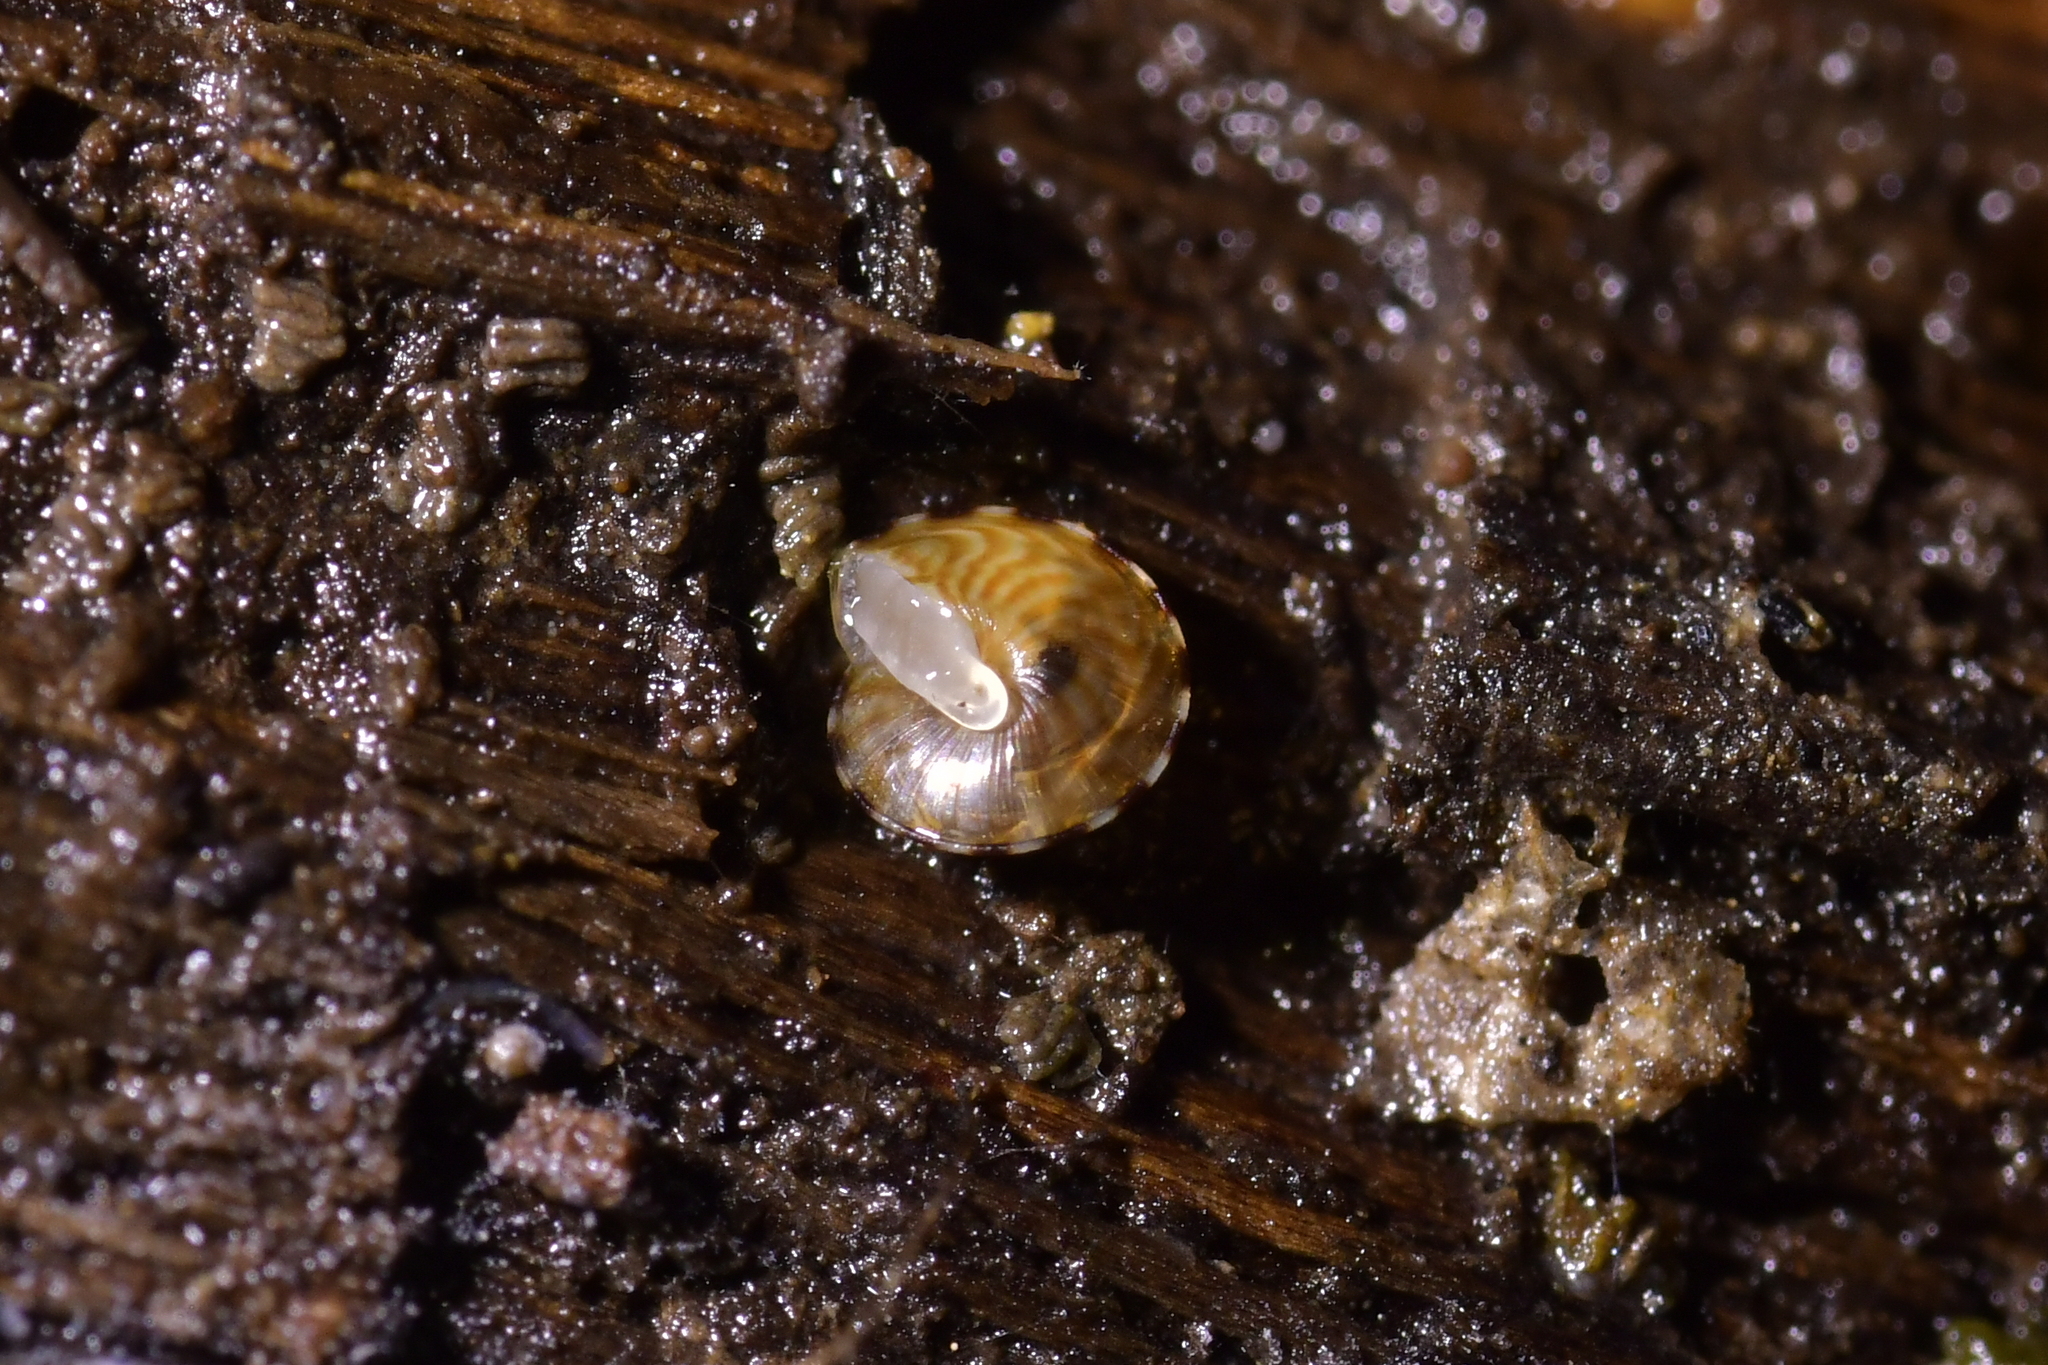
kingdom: Animalia
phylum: Mollusca
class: Gastropoda
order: Stylommatophora
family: Punctidae
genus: Laoma
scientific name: Laoma mariae
